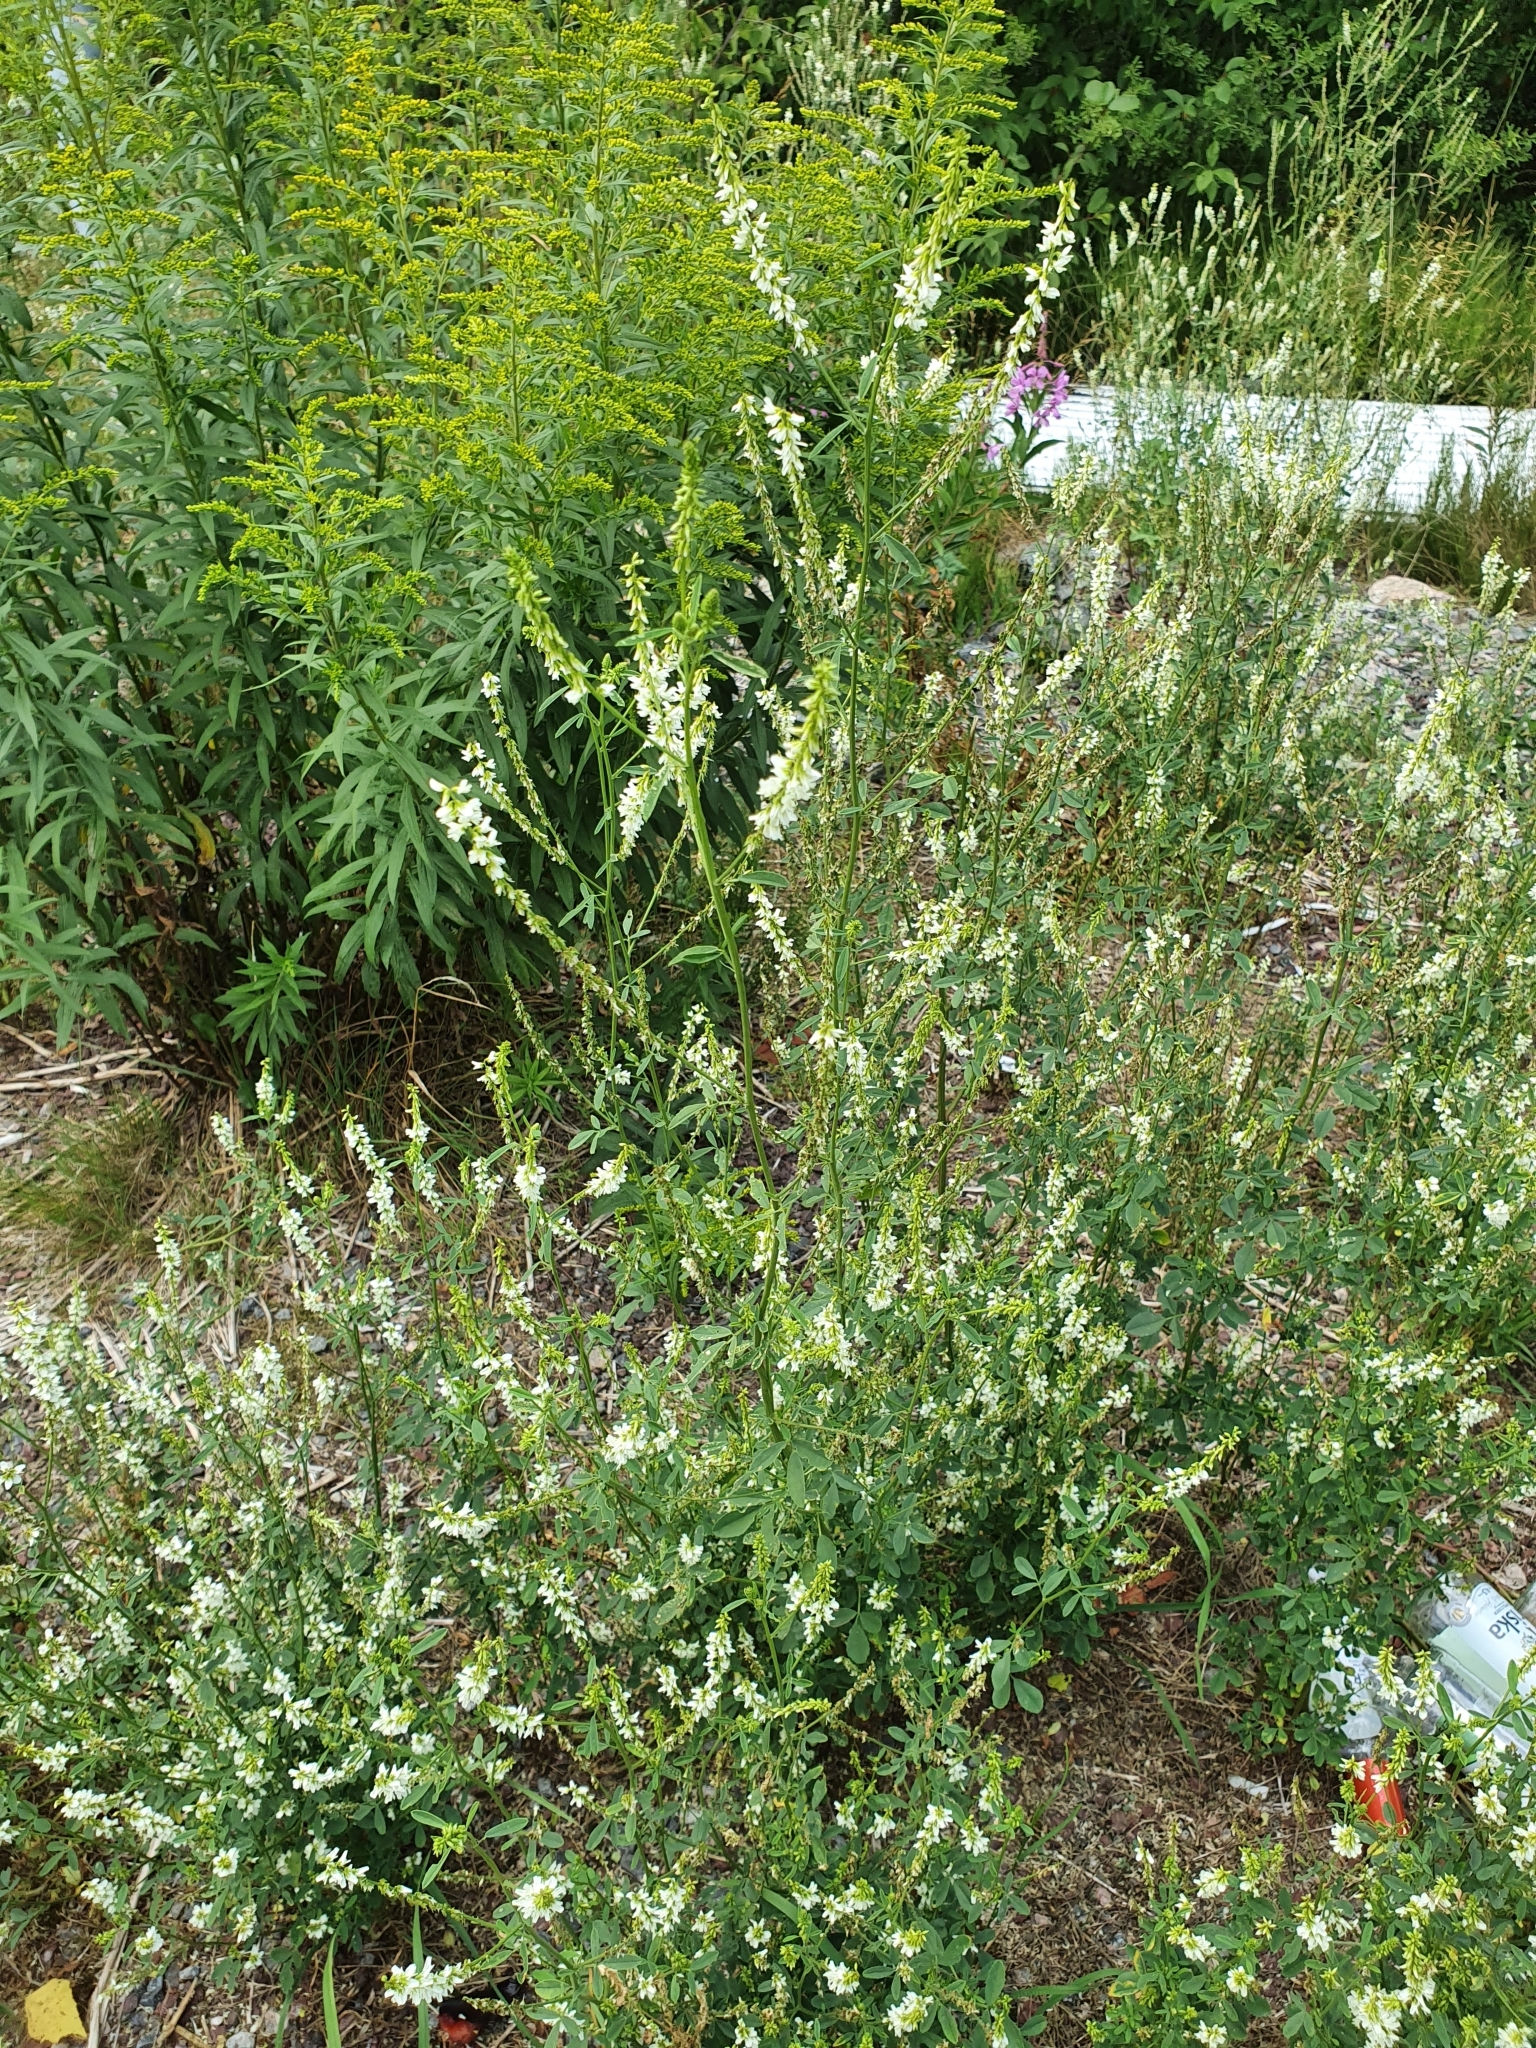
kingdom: Plantae
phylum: Tracheophyta
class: Magnoliopsida
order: Fabales
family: Fabaceae
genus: Melilotus
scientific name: Melilotus albus
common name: White melilot
